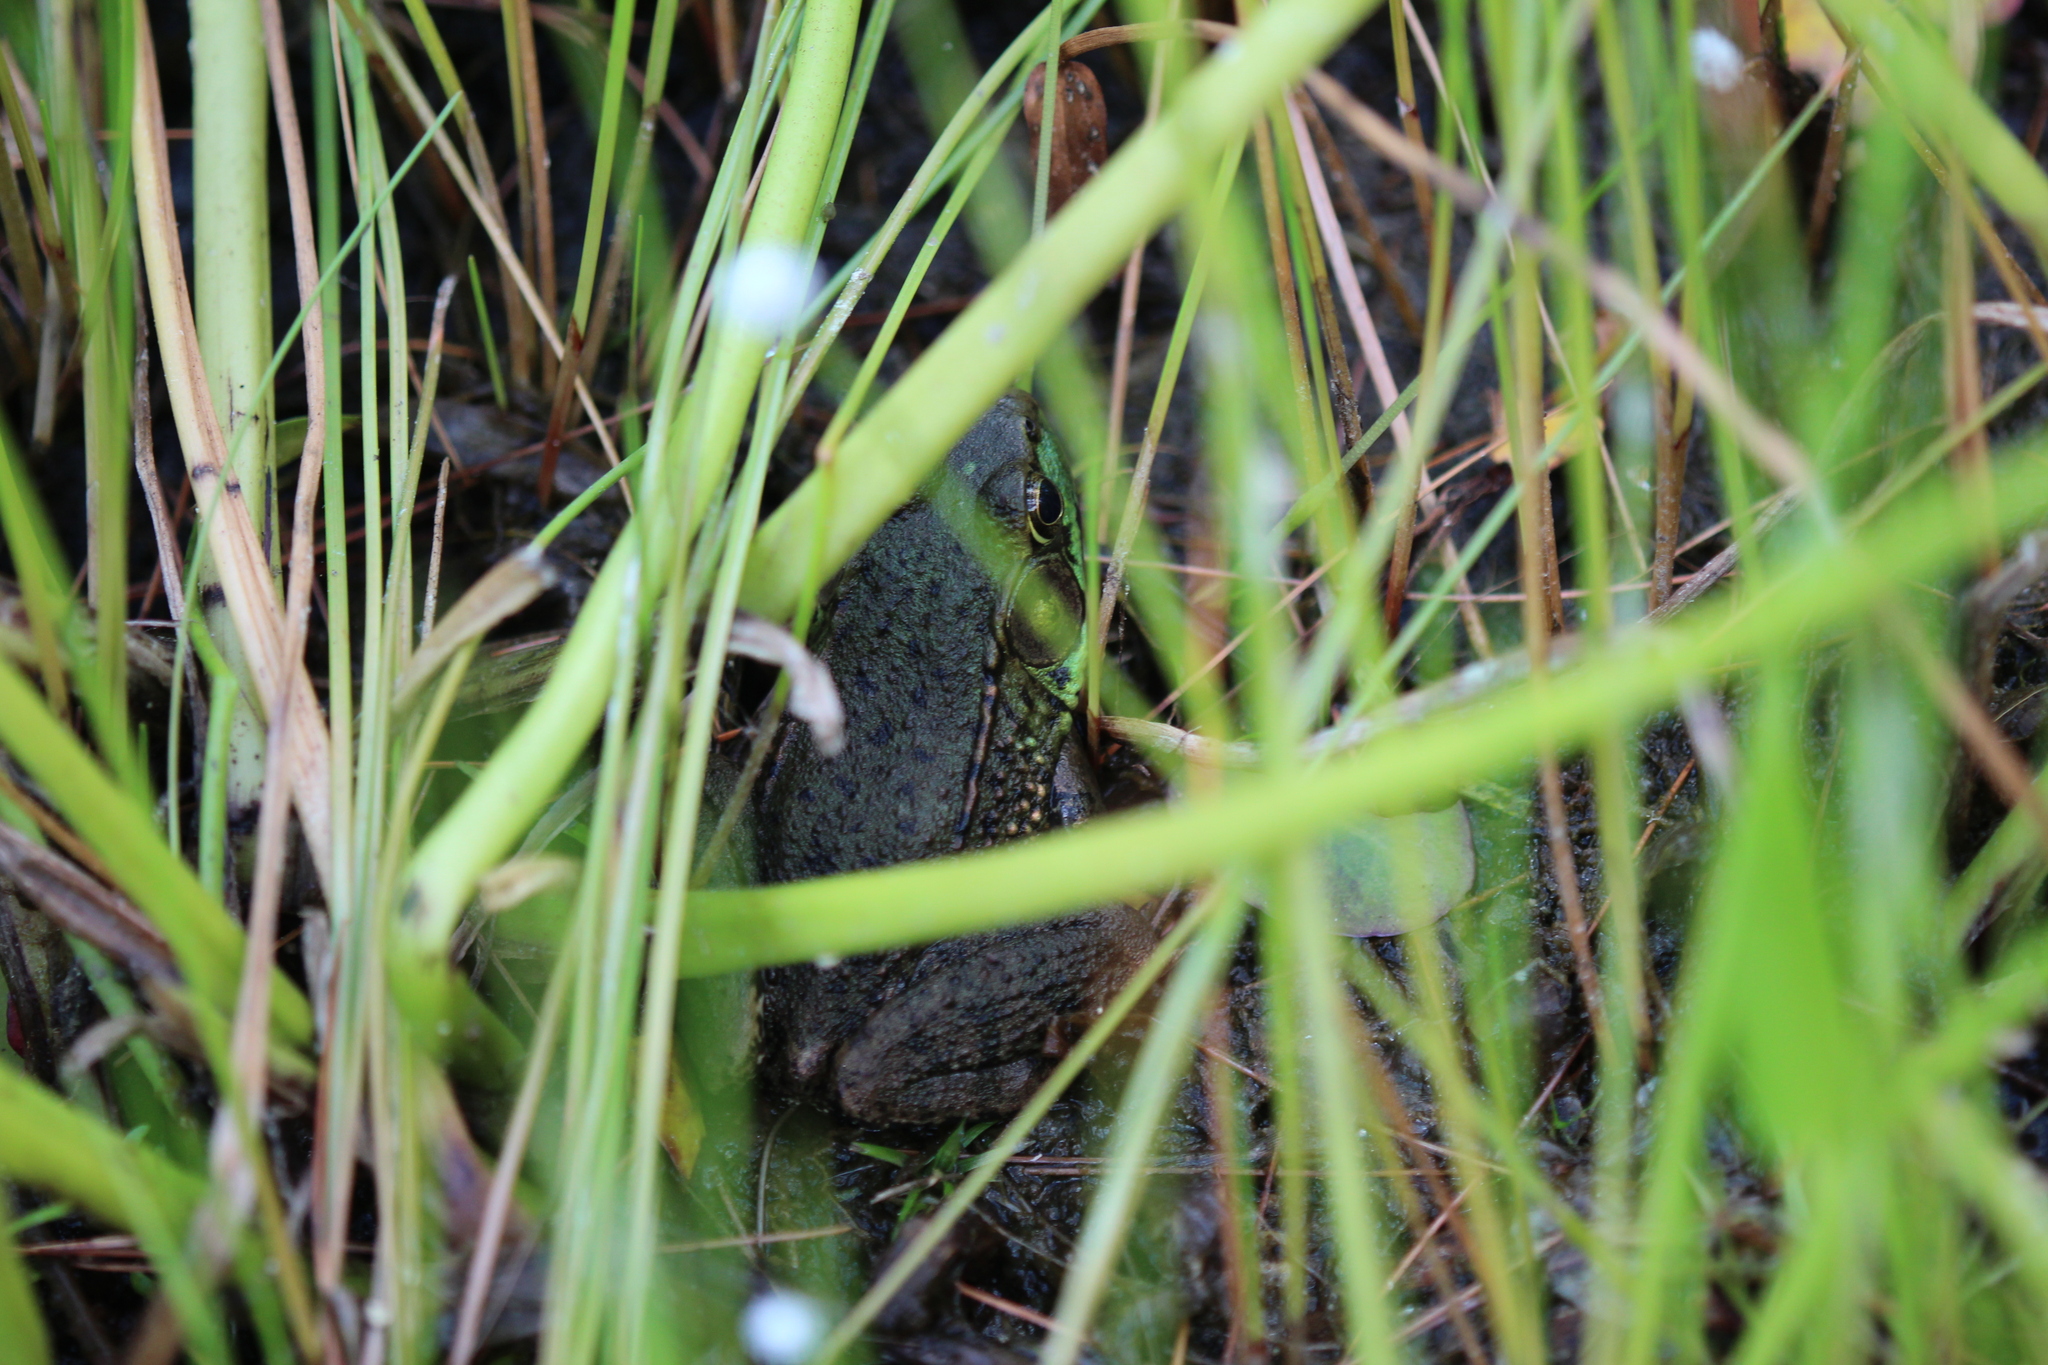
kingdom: Animalia
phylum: Chordata
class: Amphibia
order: Anura
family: Ranidae
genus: Lithobates
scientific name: Lithobates clamitans
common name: Green frog
